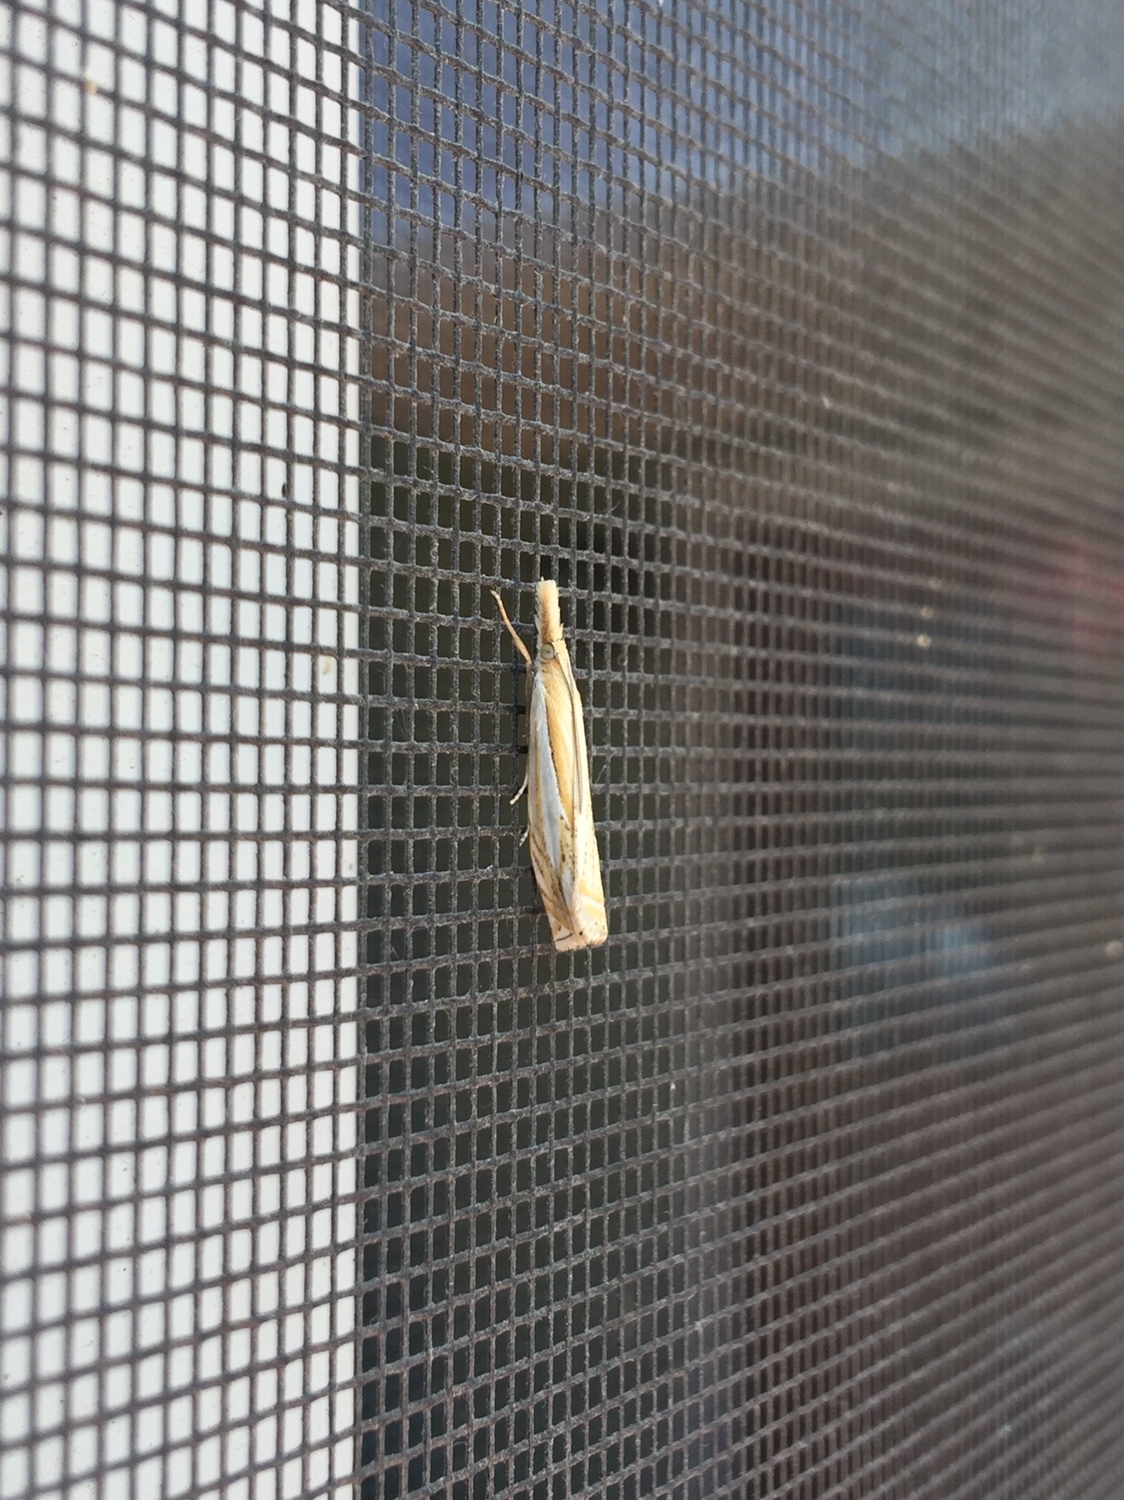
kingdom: Animalia
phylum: Arthropoda
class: Insecta
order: Lepidoptera
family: Crambidae
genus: Crambus
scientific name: Crambus saltuellus
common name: Pasture grass-veneer
